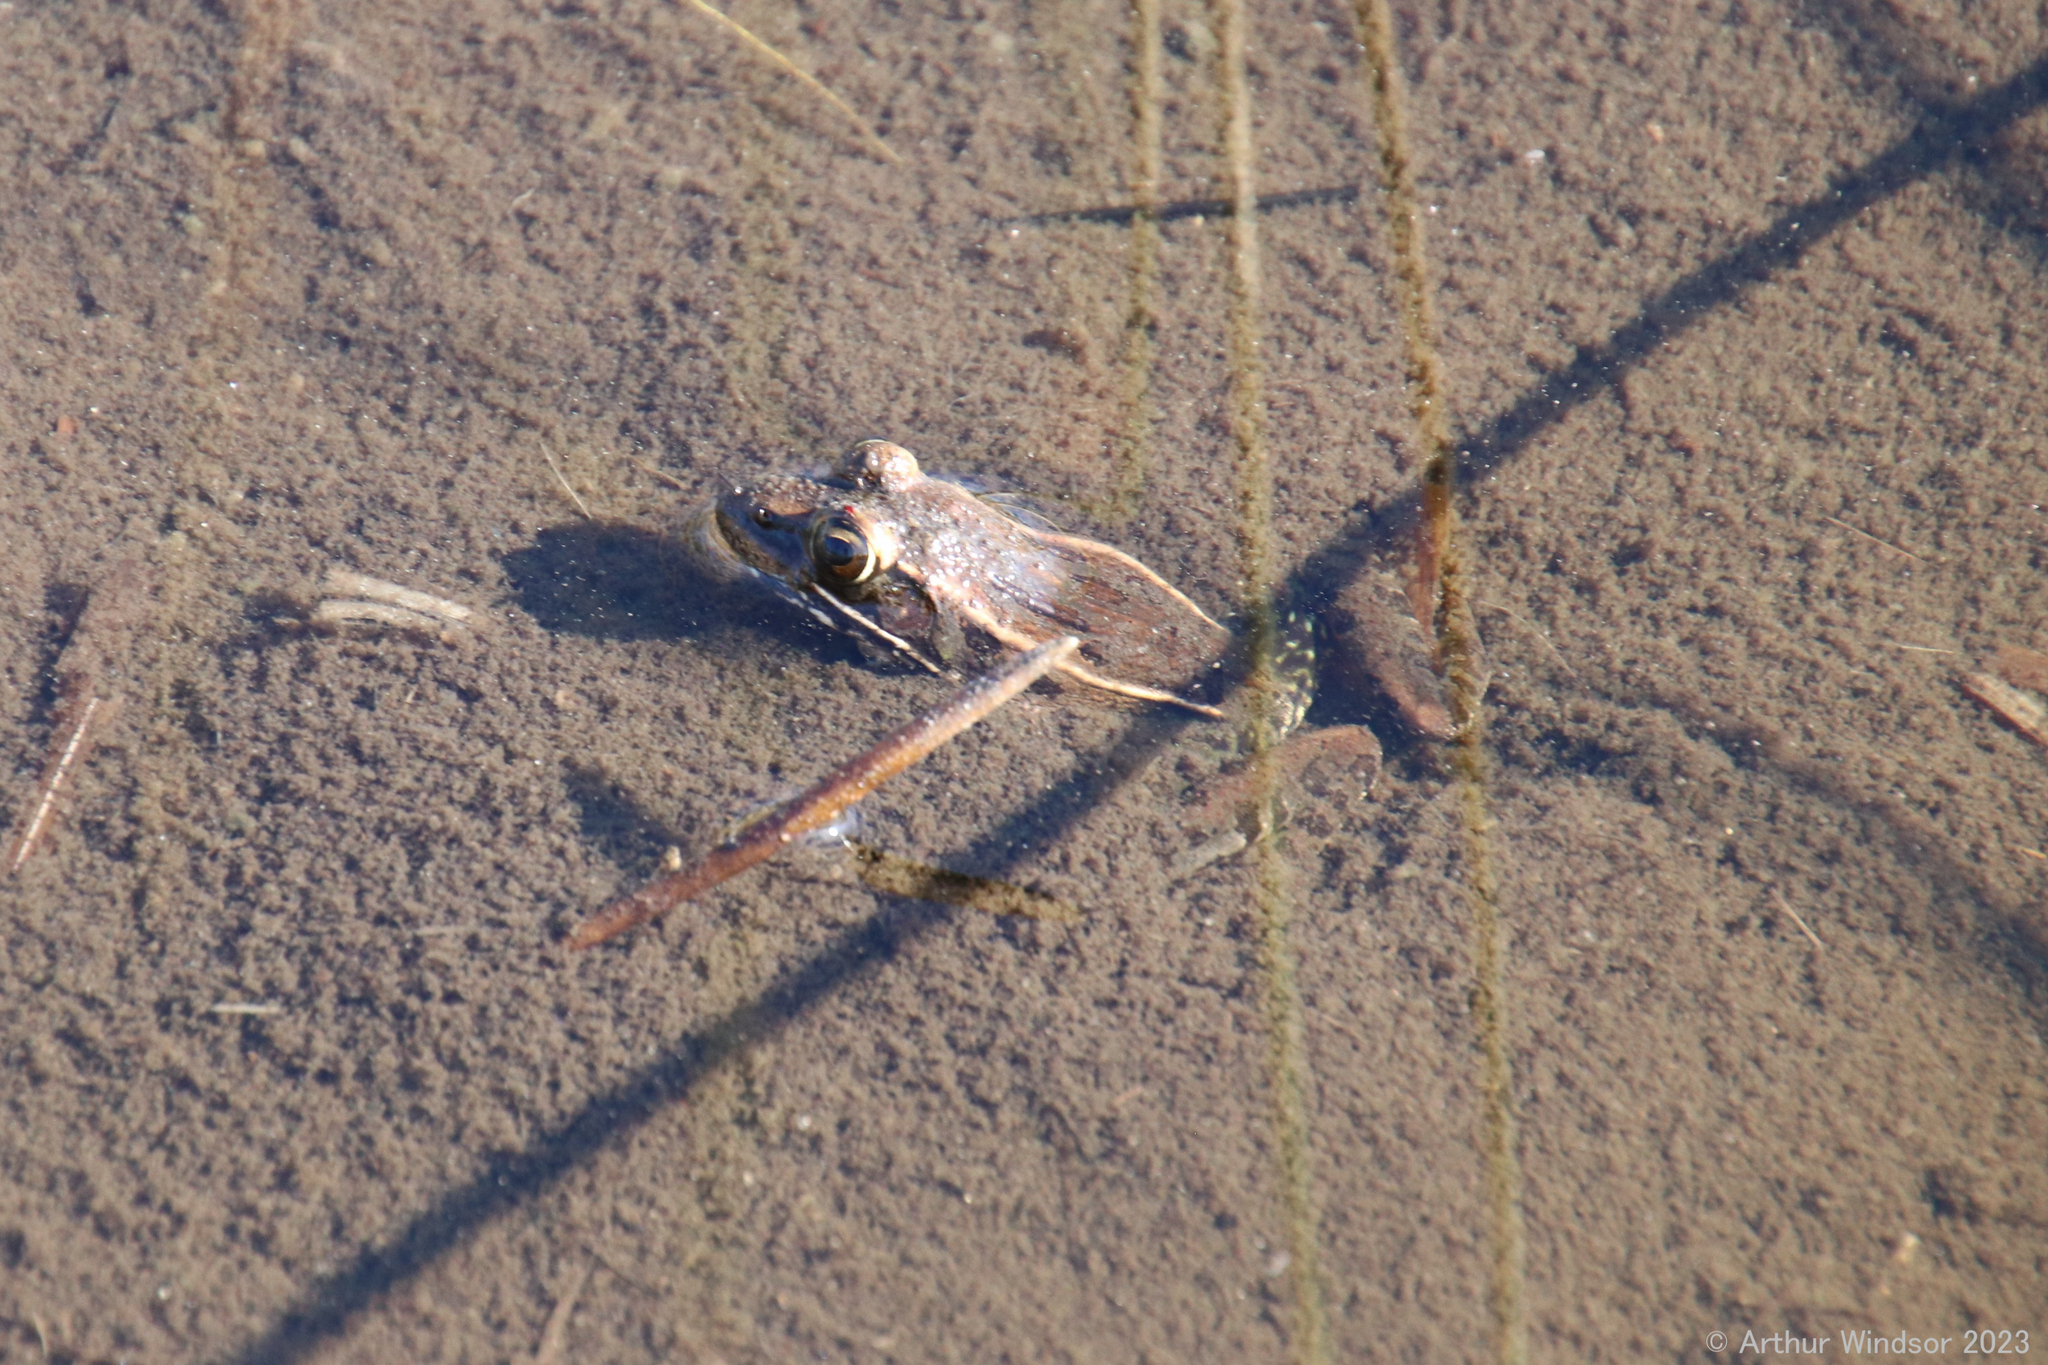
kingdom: Animalia
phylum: Chordata
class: Amphibia
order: Anura
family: Ranidae
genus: Lithobates
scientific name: Lithobates sphenocephalus
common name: Southern leopard frog
